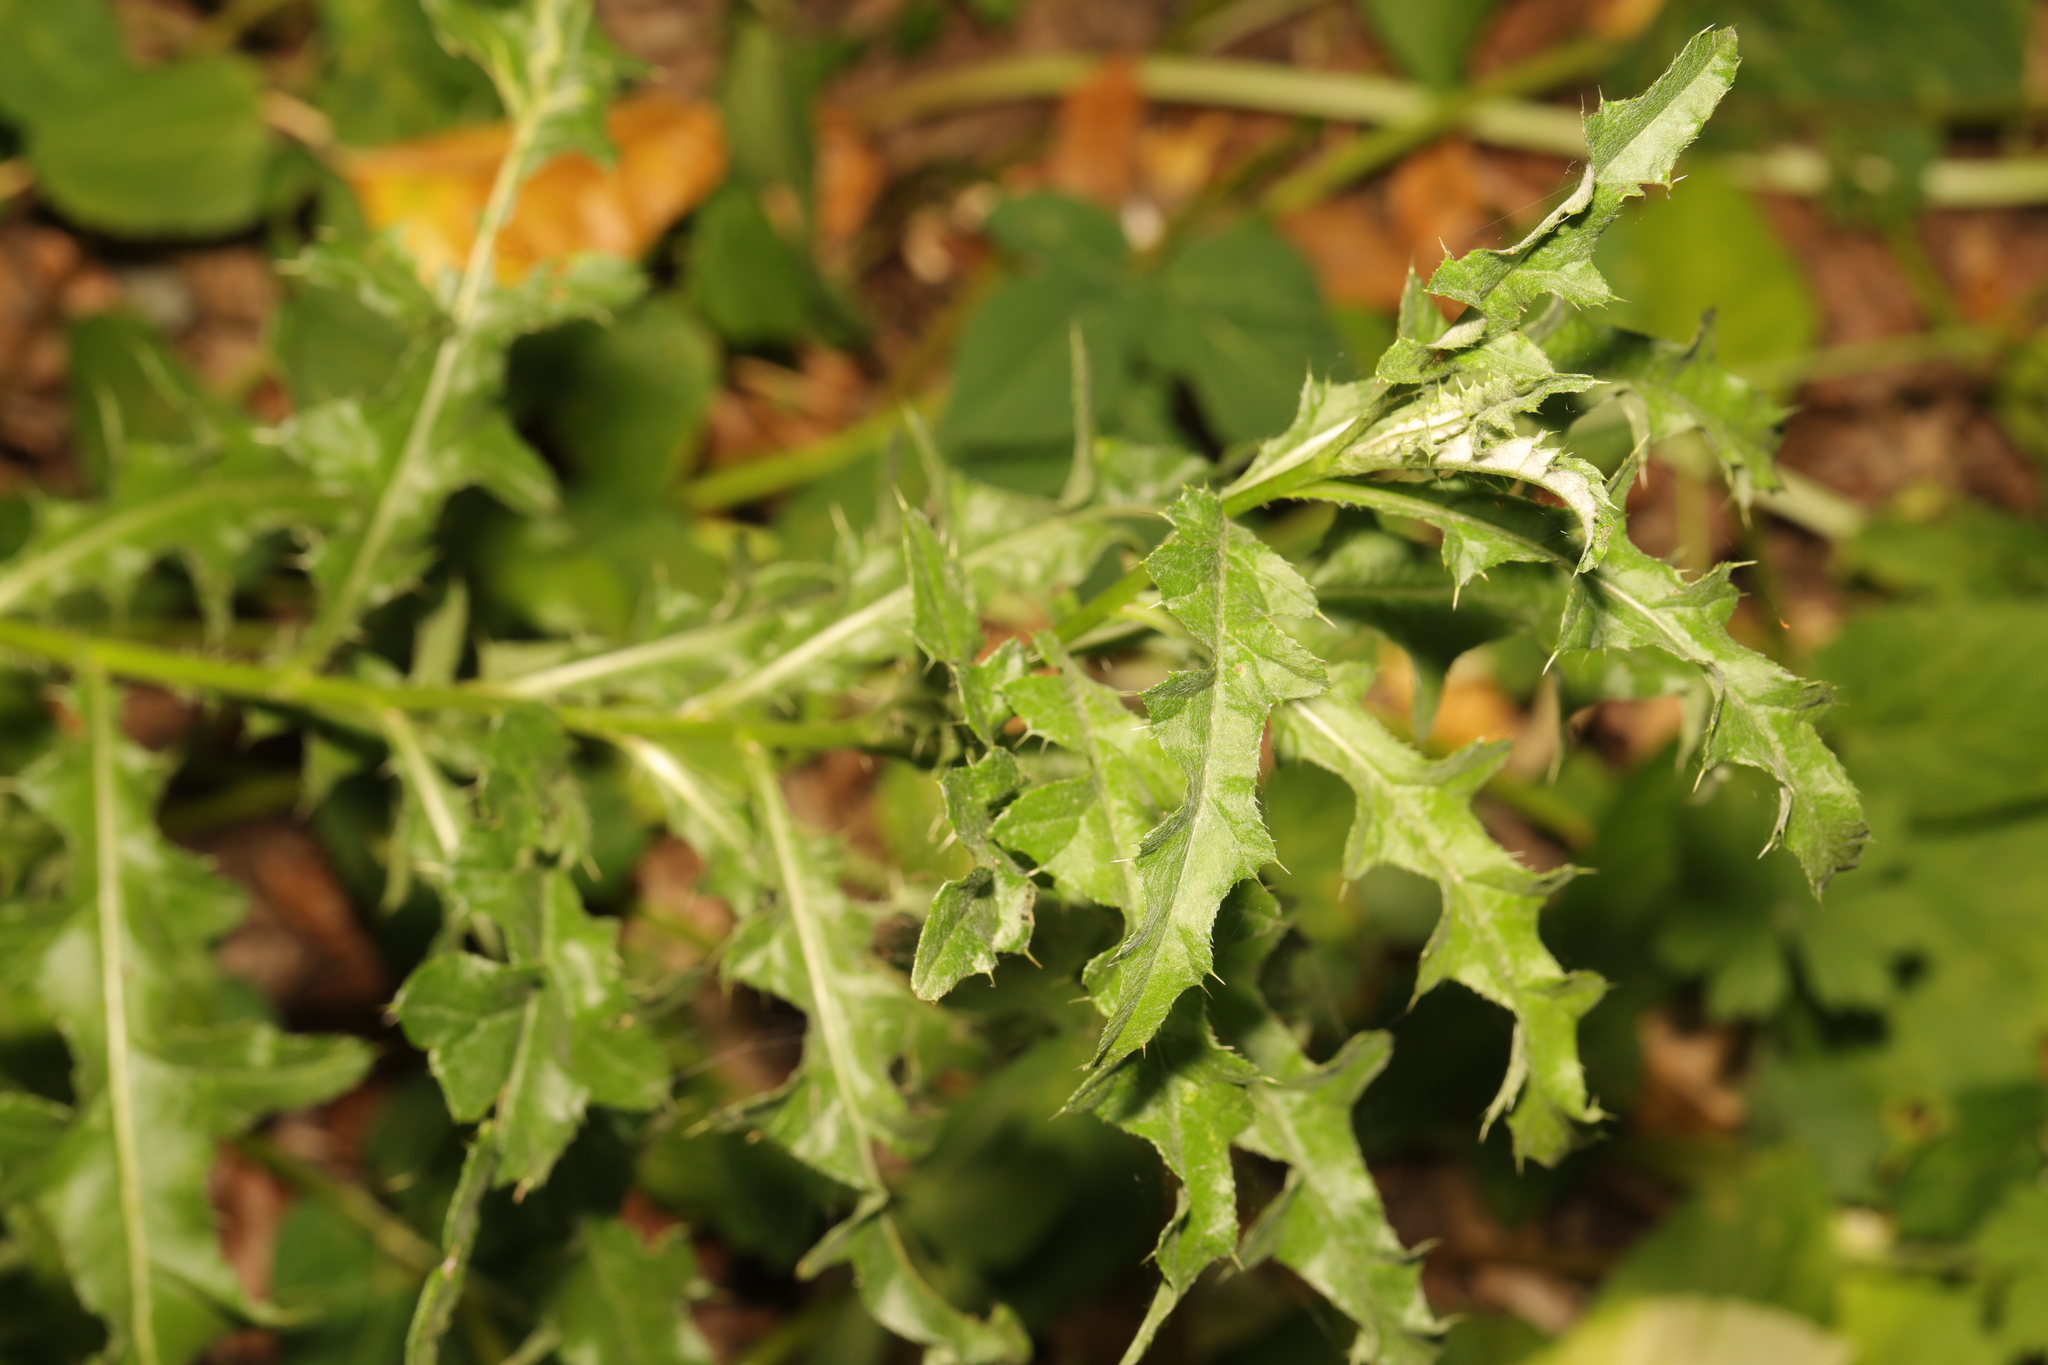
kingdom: Plantae
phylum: Tracheophyta
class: Magnoliopsida
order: Asterales
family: Asteraceae
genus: Cirsium
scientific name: Cirsium arvense
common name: Creeping thistle
